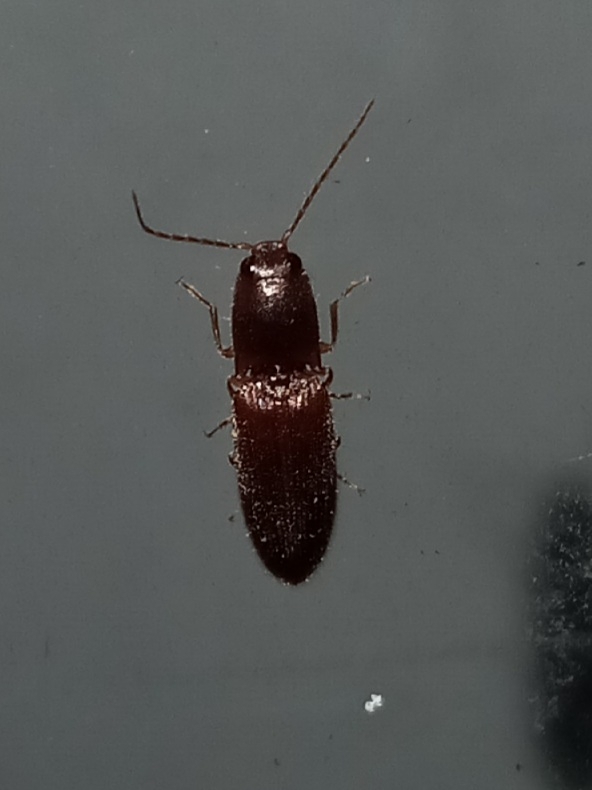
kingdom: Animalia
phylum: Arthropoda
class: Insecta
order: Coleoptera
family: Elateridae
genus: Athous
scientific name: Athous cucullatus
